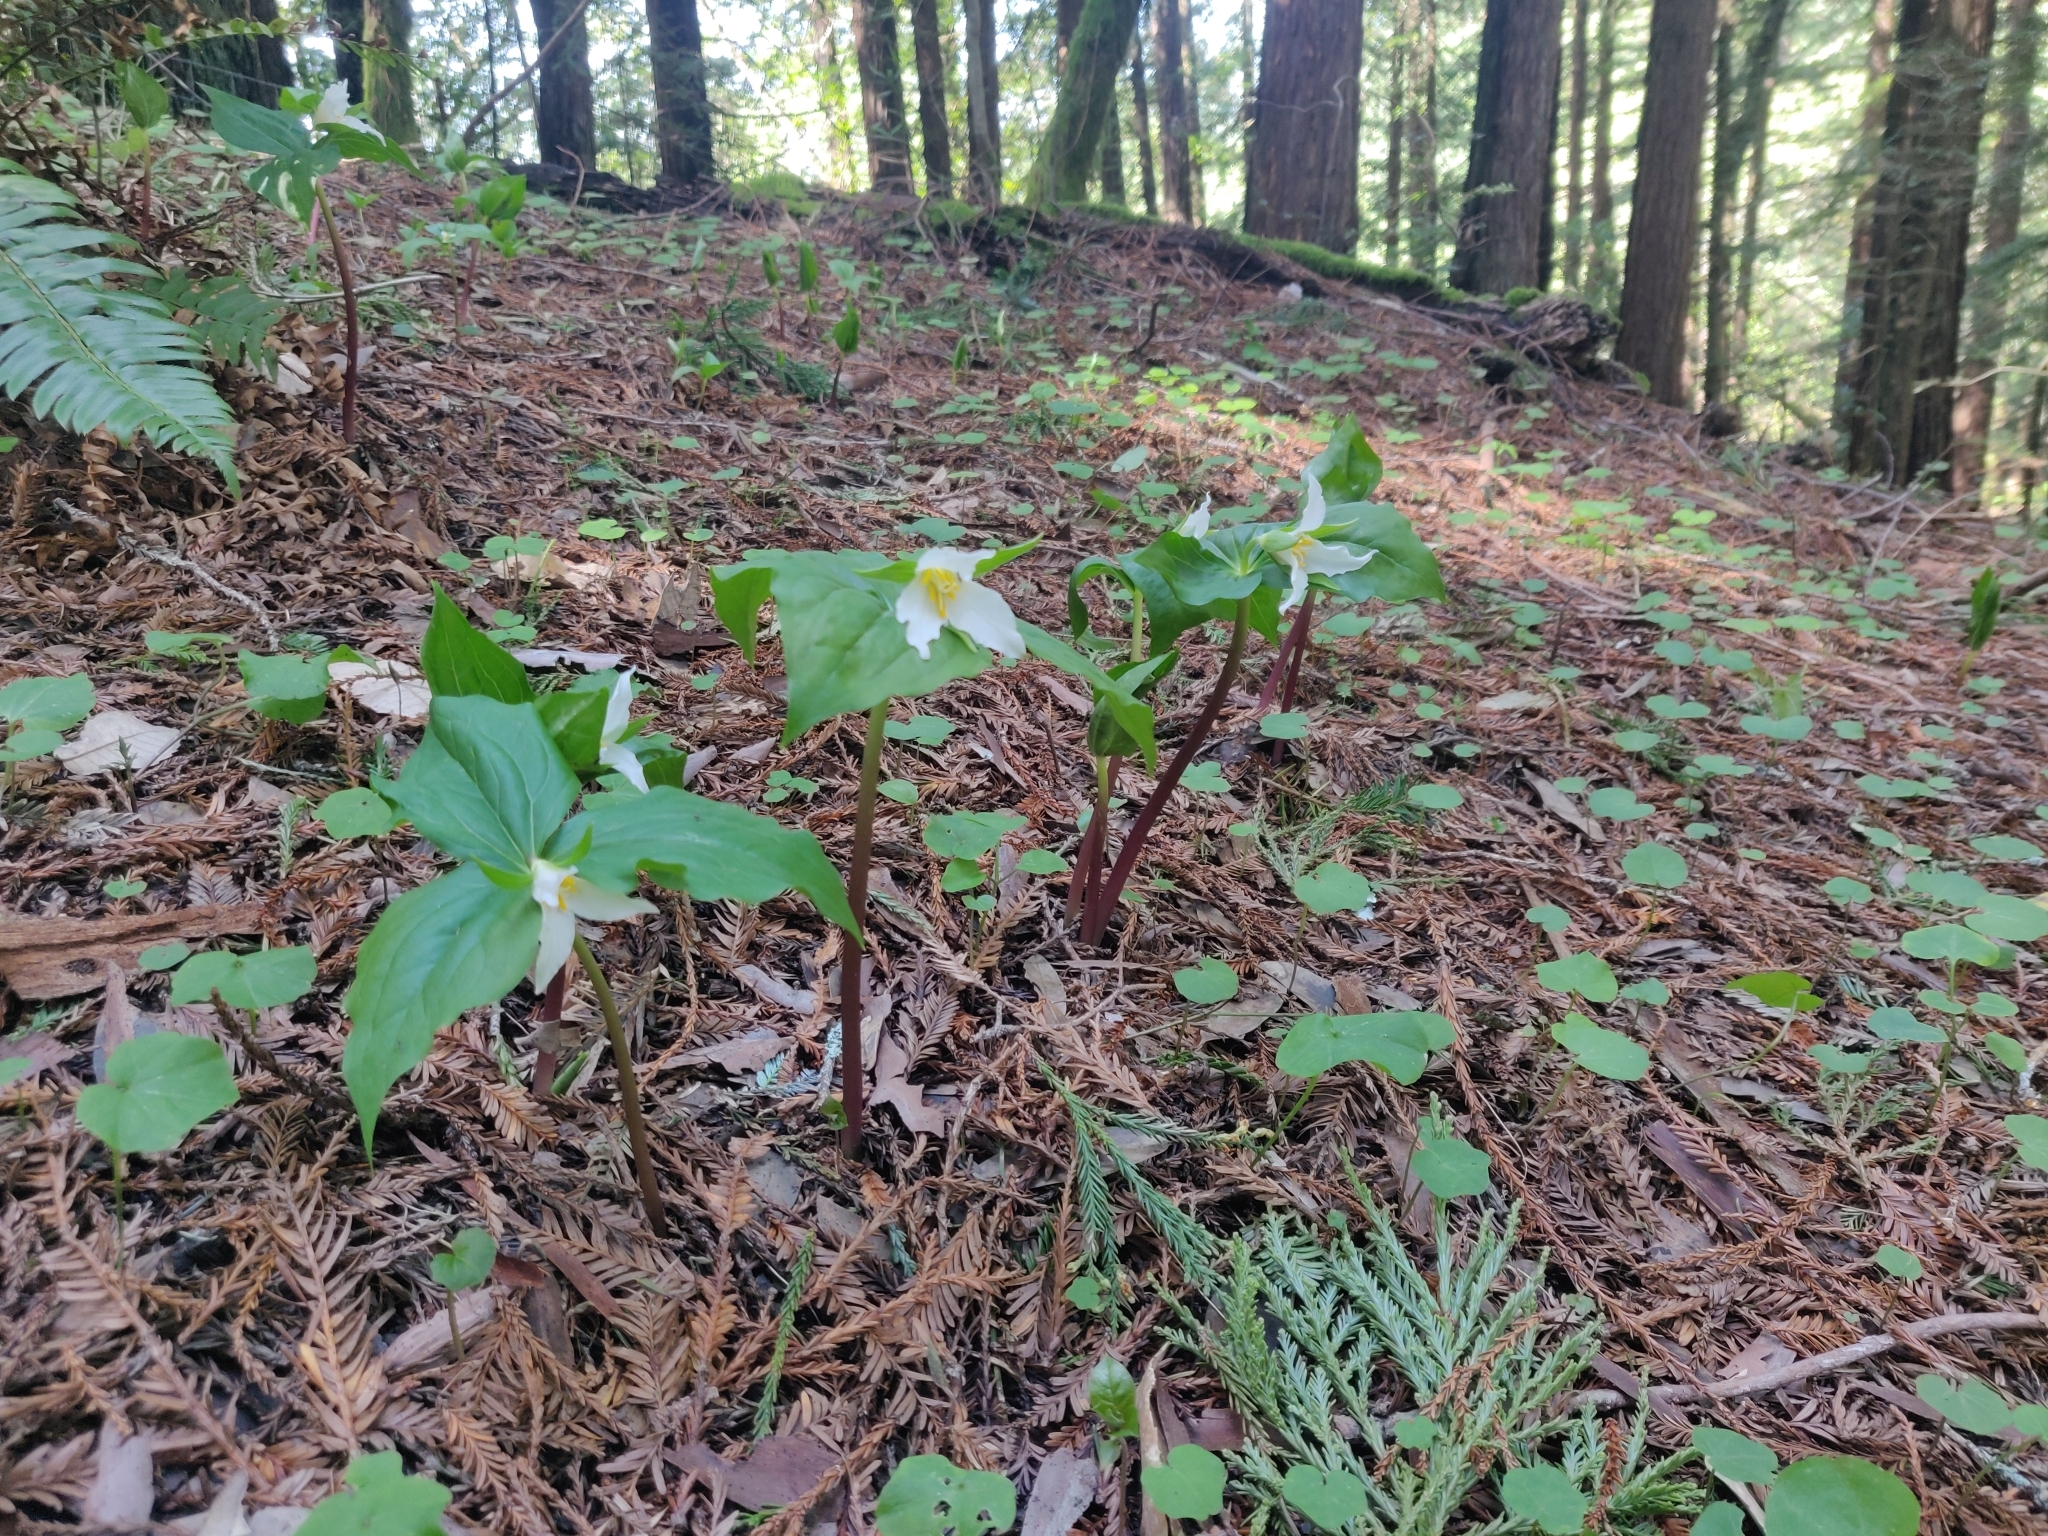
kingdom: Plantae
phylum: Tracheophyta
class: Liliopsida
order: Liliales
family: Melanthiaceae
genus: Trillium
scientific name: Trillium ovatum
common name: Pacific trillium
